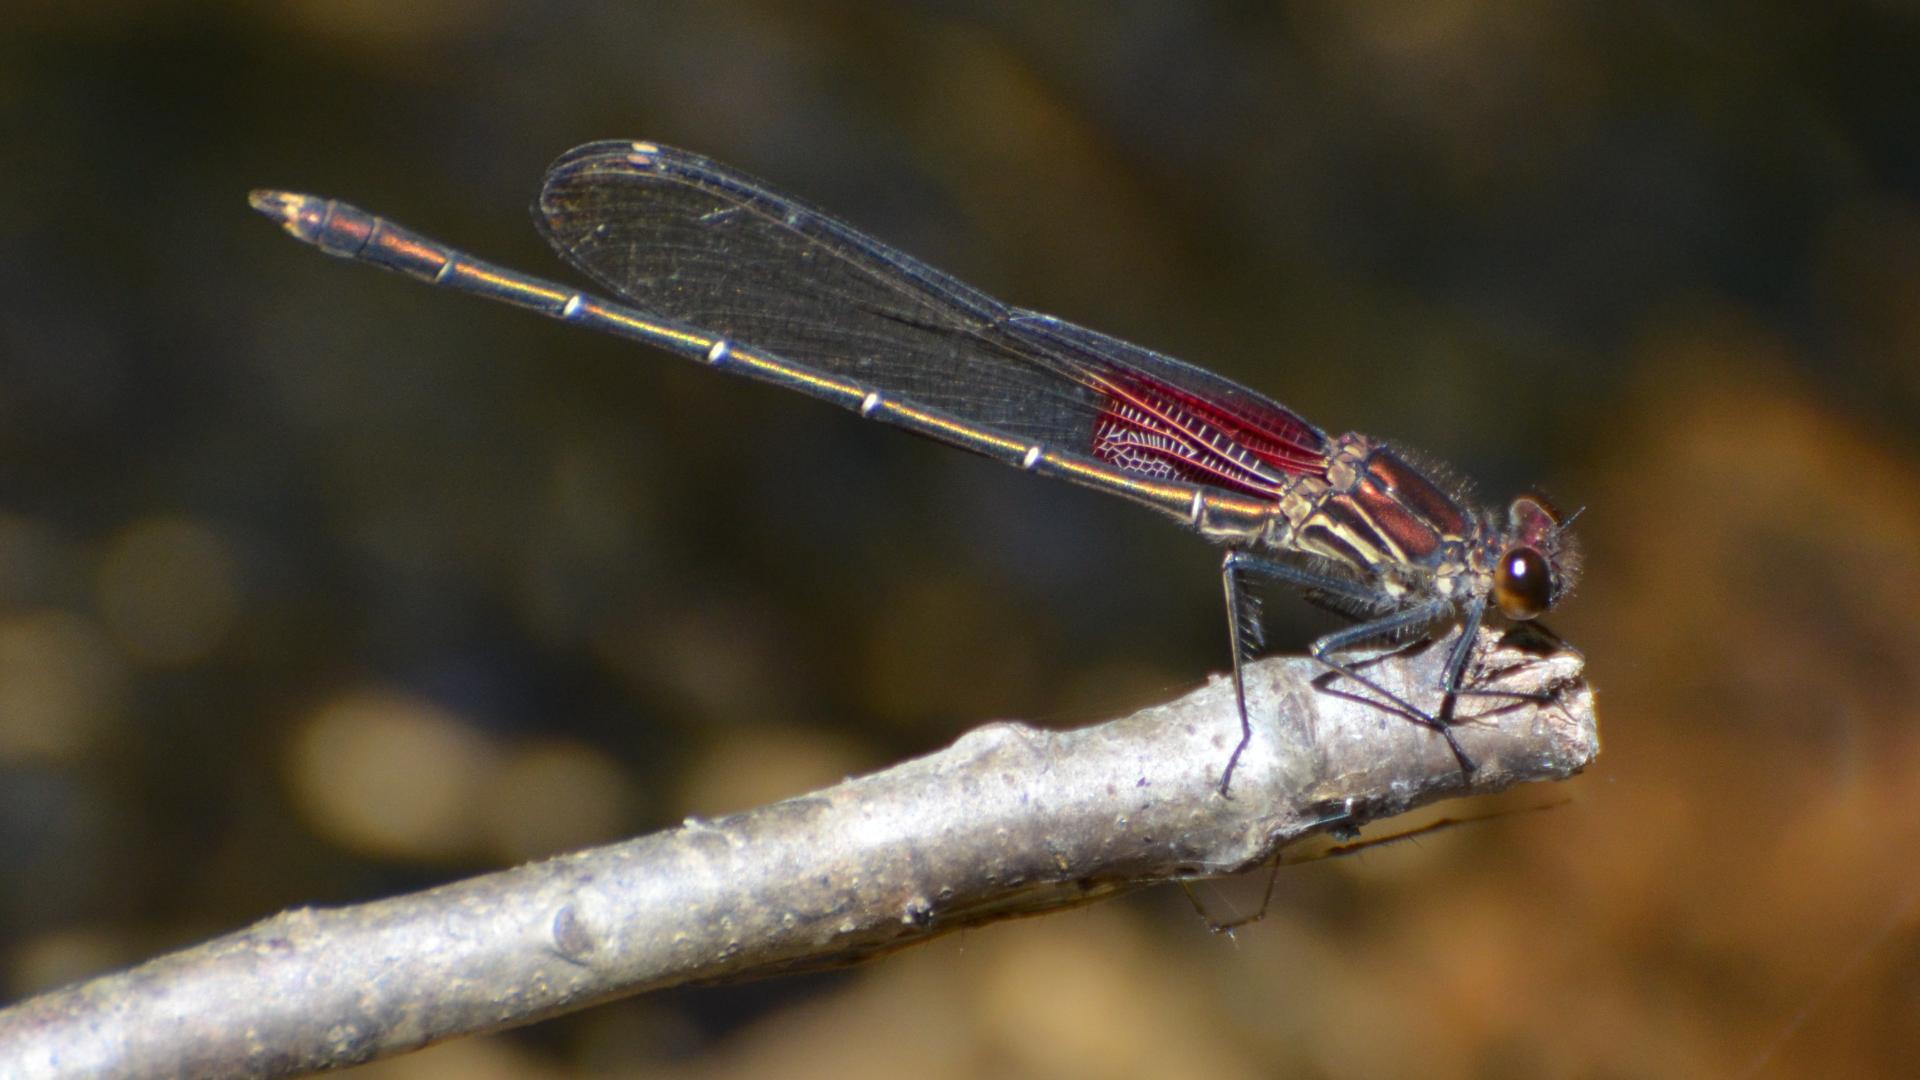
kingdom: Animalia
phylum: Arthropoda
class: Insecta
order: Odonata
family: Calopterygidae
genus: Hetaerina
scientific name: Hetaerina americana
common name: American rubyspot
